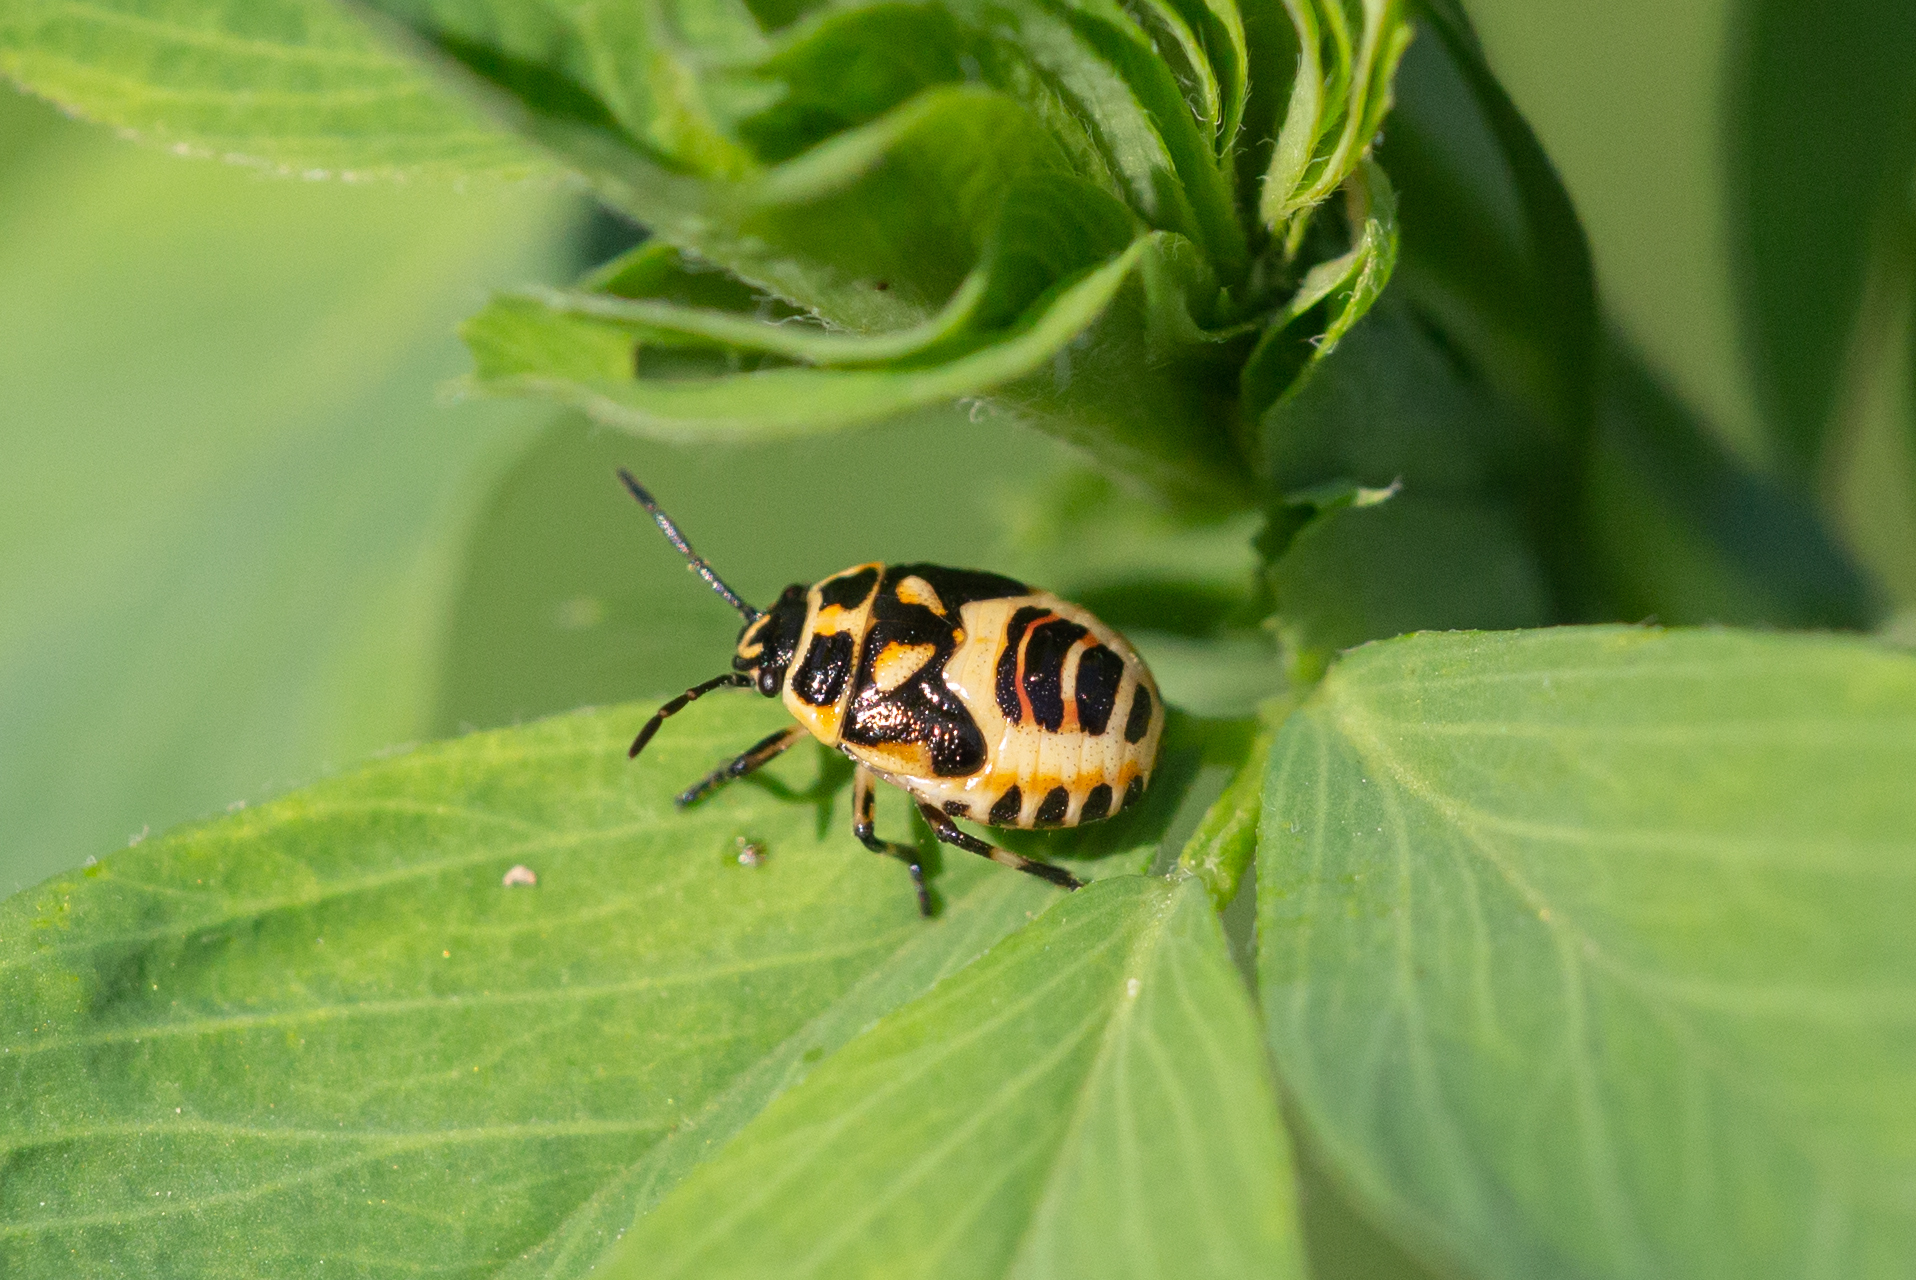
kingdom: Animalia
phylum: Arthropoda
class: Insecta
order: Hemiptera
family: Pentatomidae
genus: Eurydema
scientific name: Eurydema ornata
